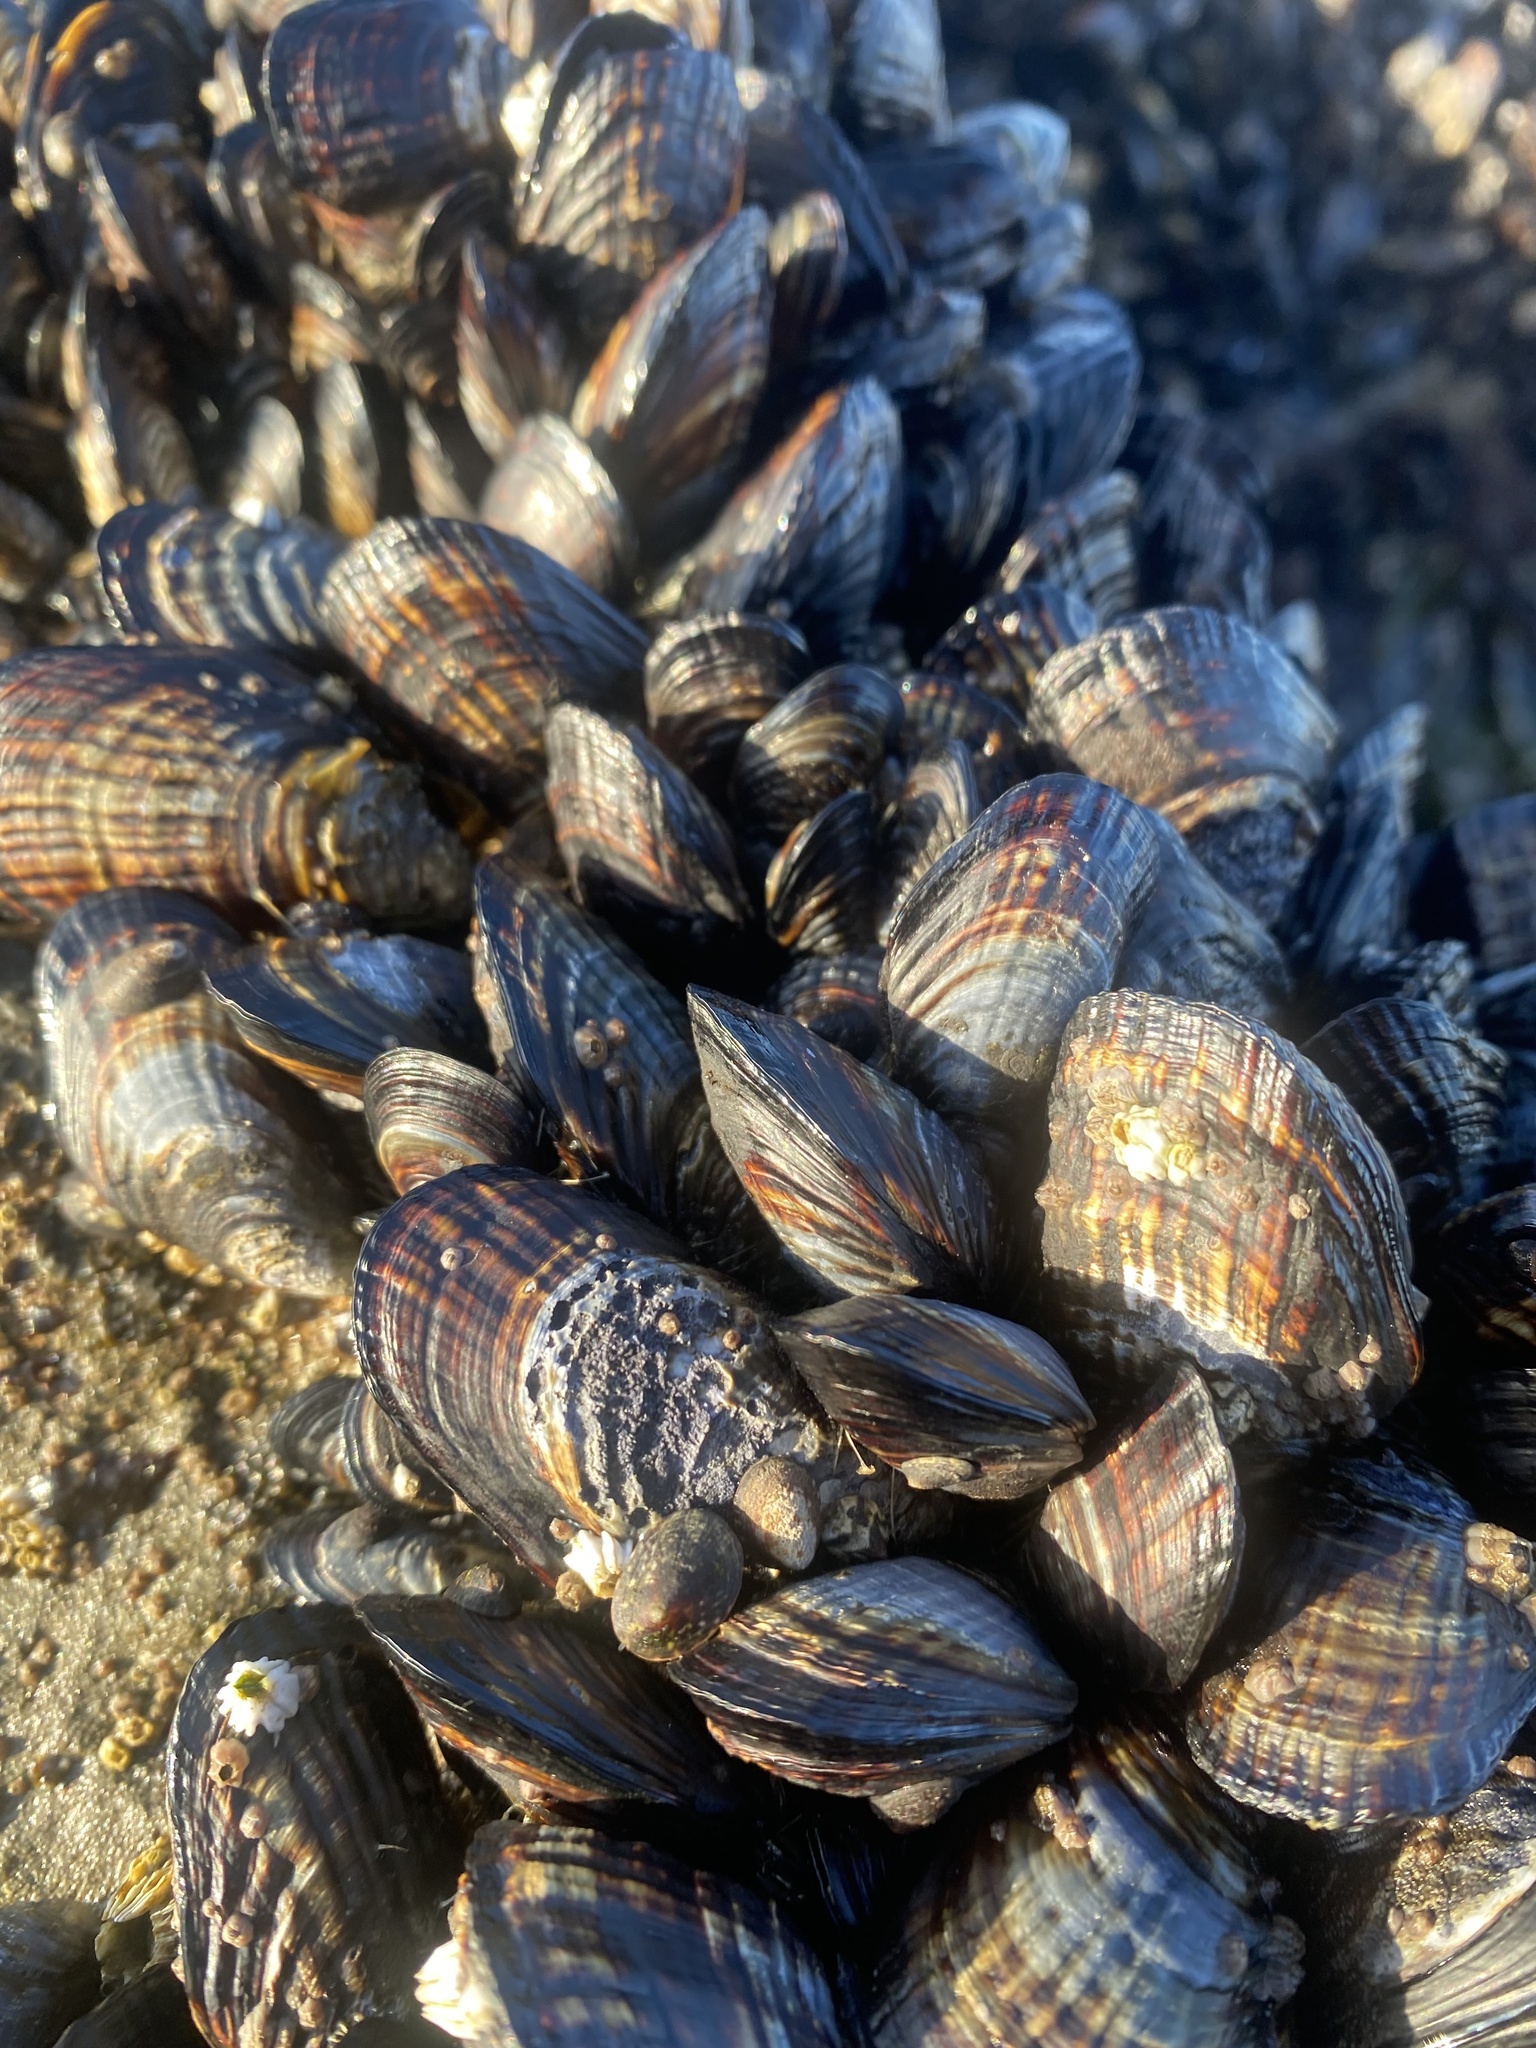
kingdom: Animalia
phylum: Mollusca
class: Bivalvia
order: Mytilida
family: Mytilidae
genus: Mytilus
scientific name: Mytilus californianus
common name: California mussel
